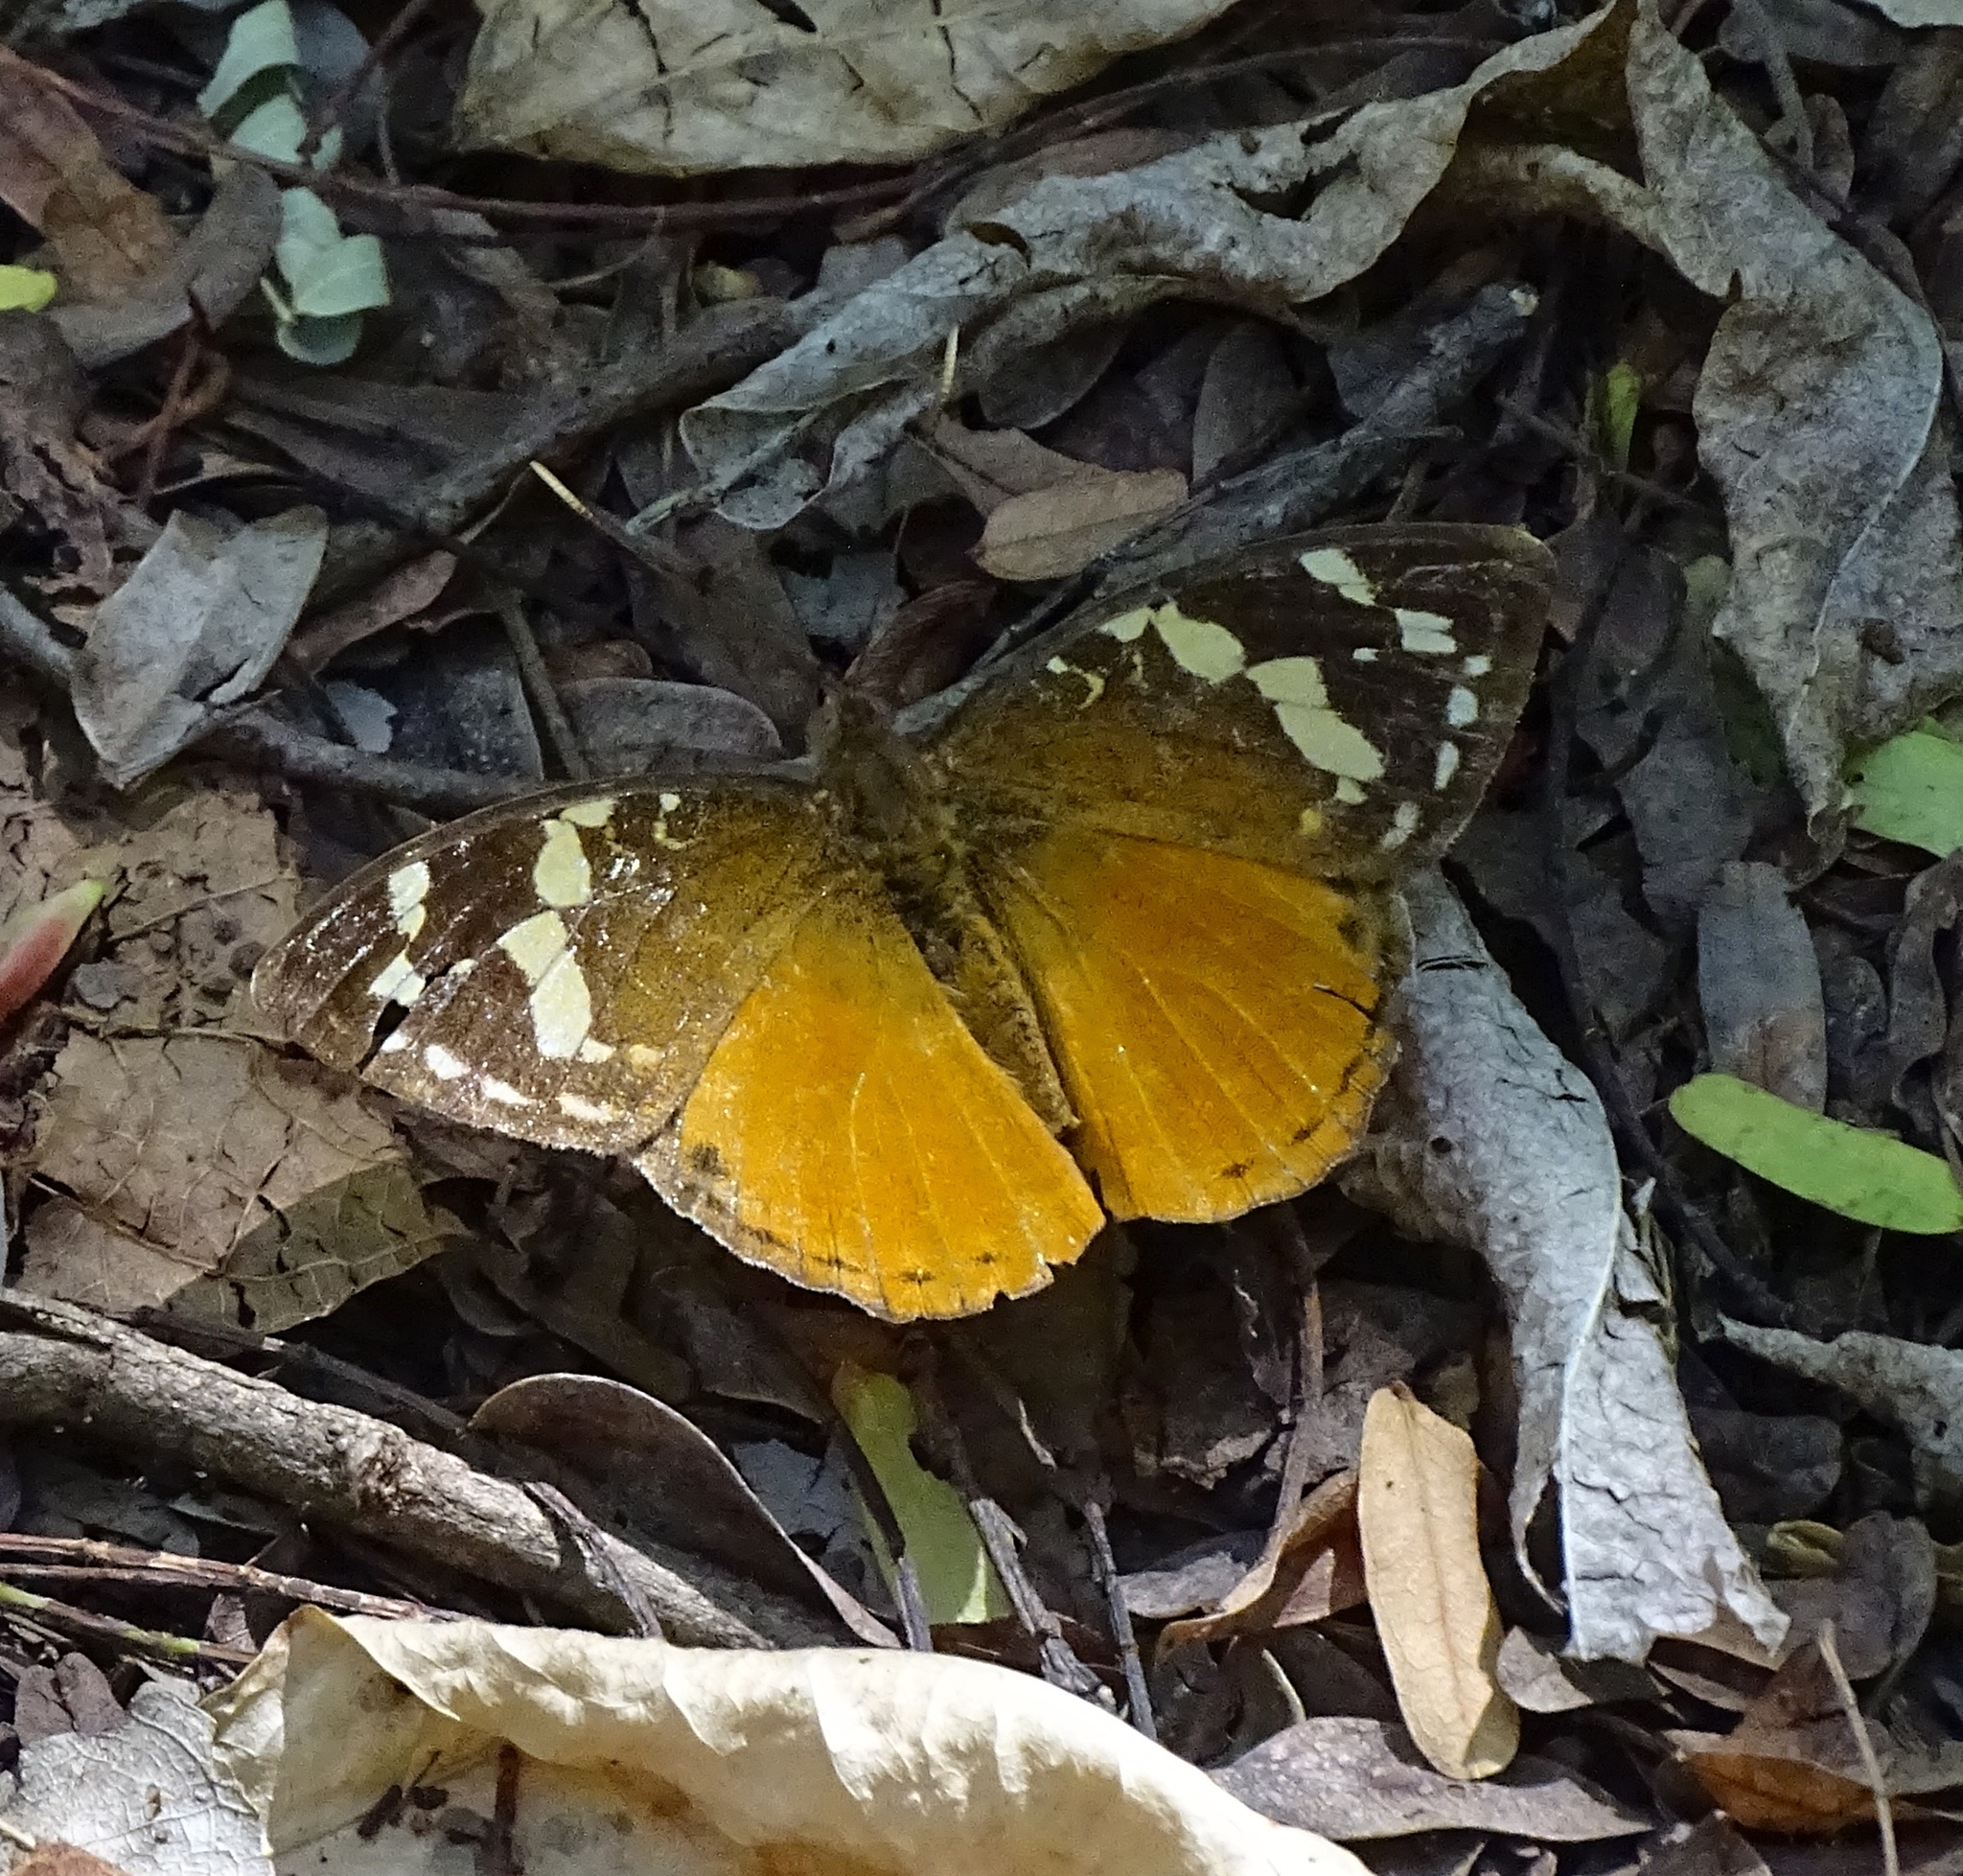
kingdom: Animalia
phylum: Arthropoda
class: Insecta
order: Lepidoptera
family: Nymphalidae
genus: Aterica
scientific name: Aterica rabena
